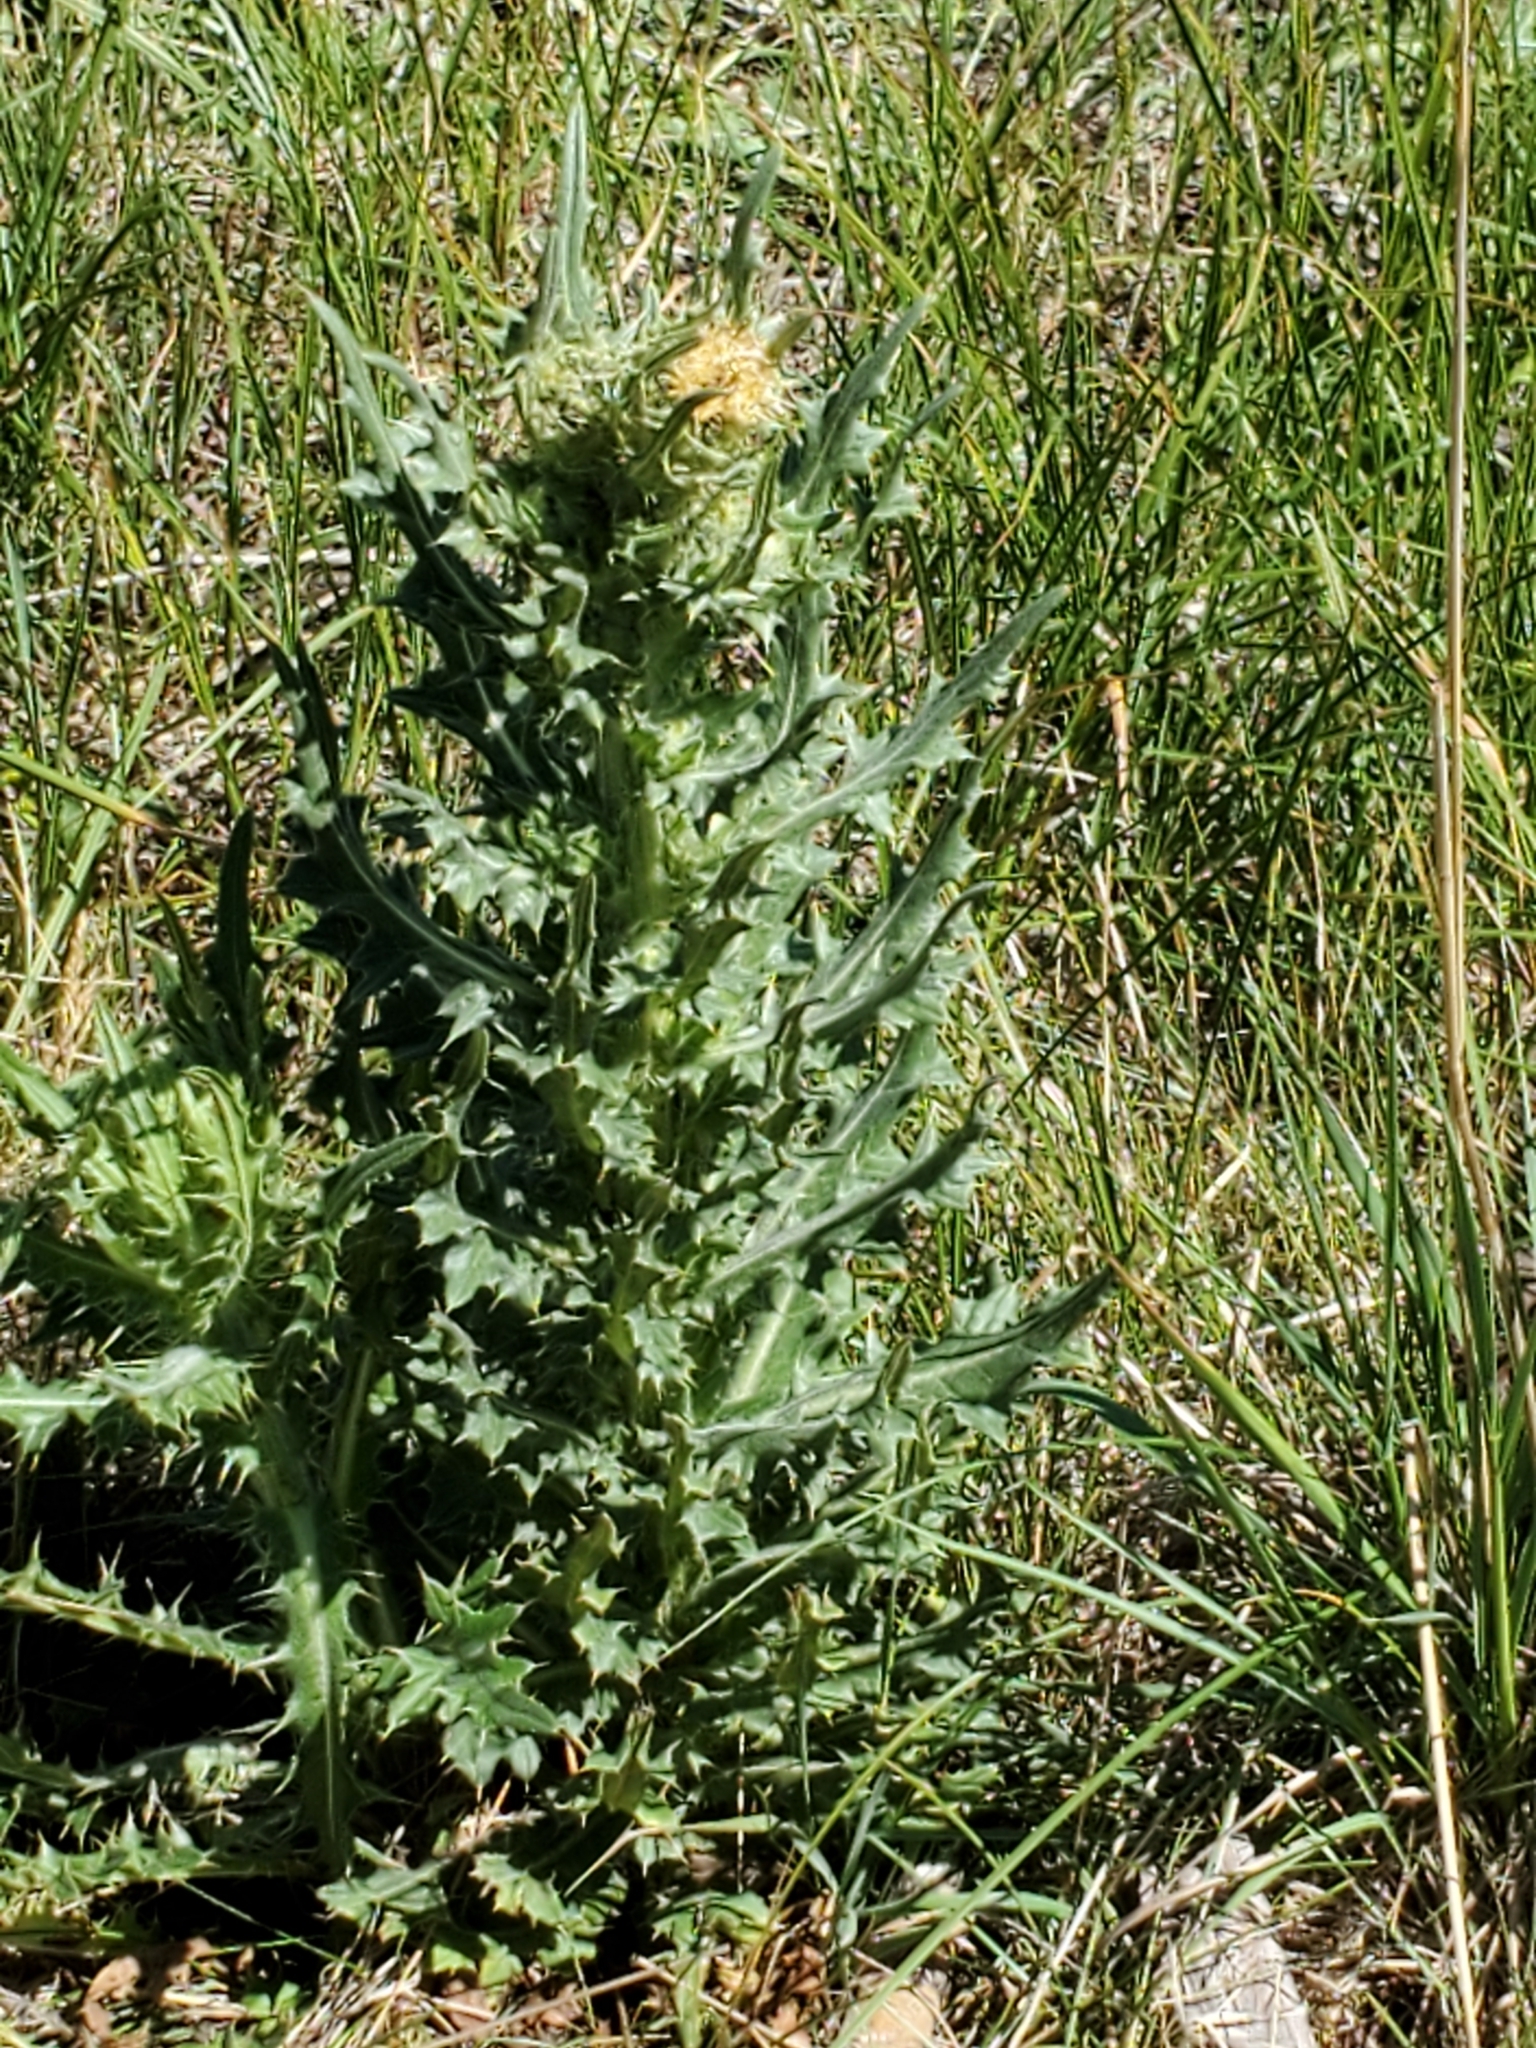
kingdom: Plantae
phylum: Tracheophyta
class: Magnoliopsida
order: Asterales
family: Asteraceae
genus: Cirsium
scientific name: Cirsium parryi
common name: Parry's thistle
